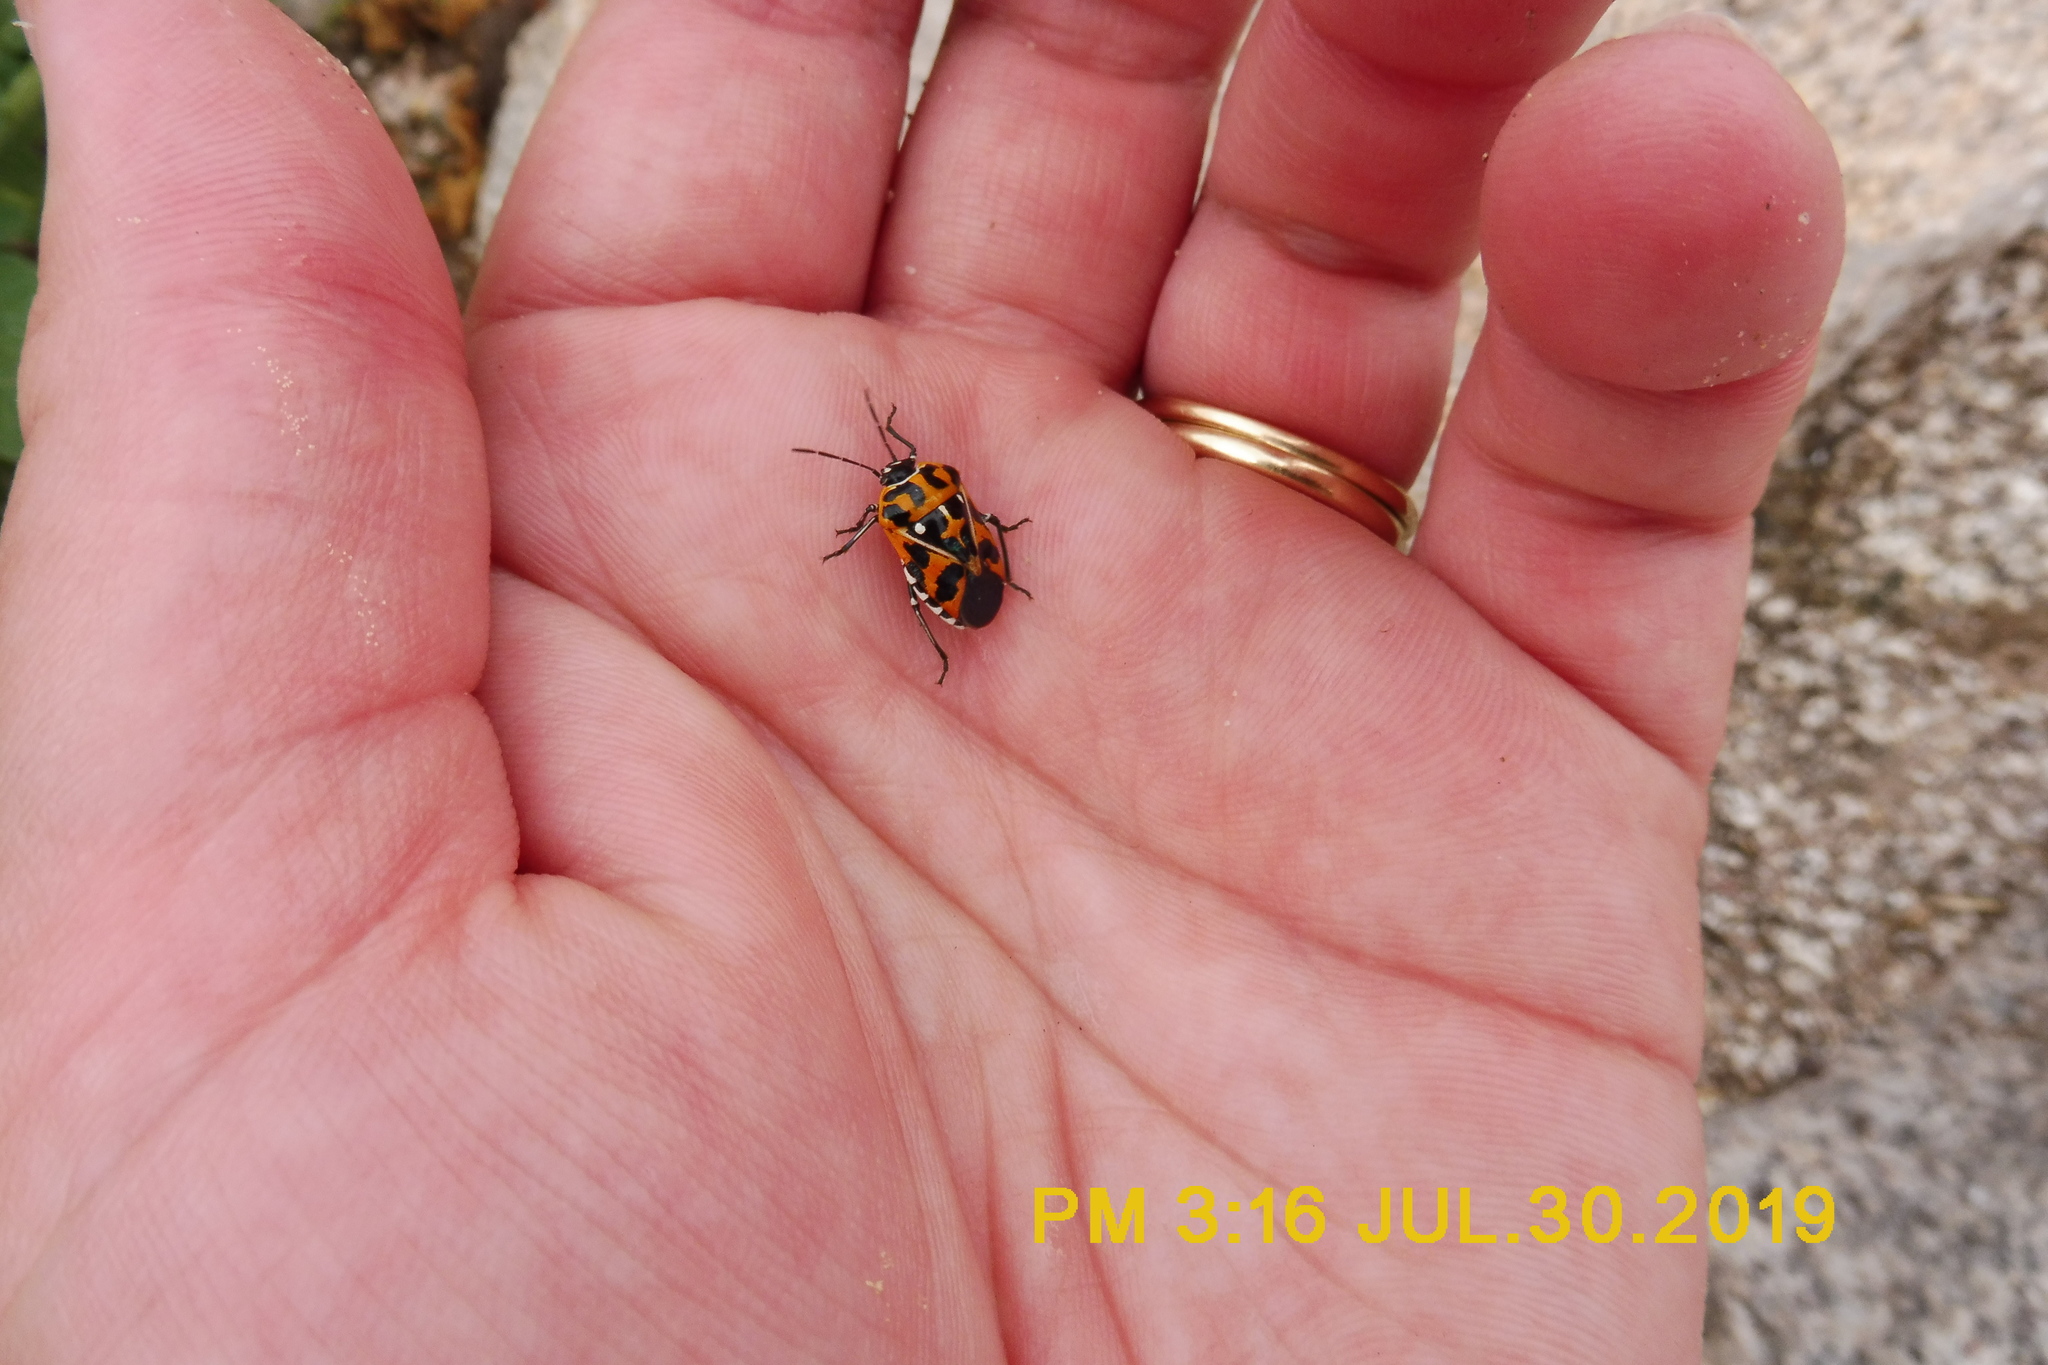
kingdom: Animalia
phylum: Arthropoda
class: Insecta
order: Hemiptera
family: Pentatomidae
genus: Murgantia
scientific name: Murgantia histrionica
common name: Harlequin bug
